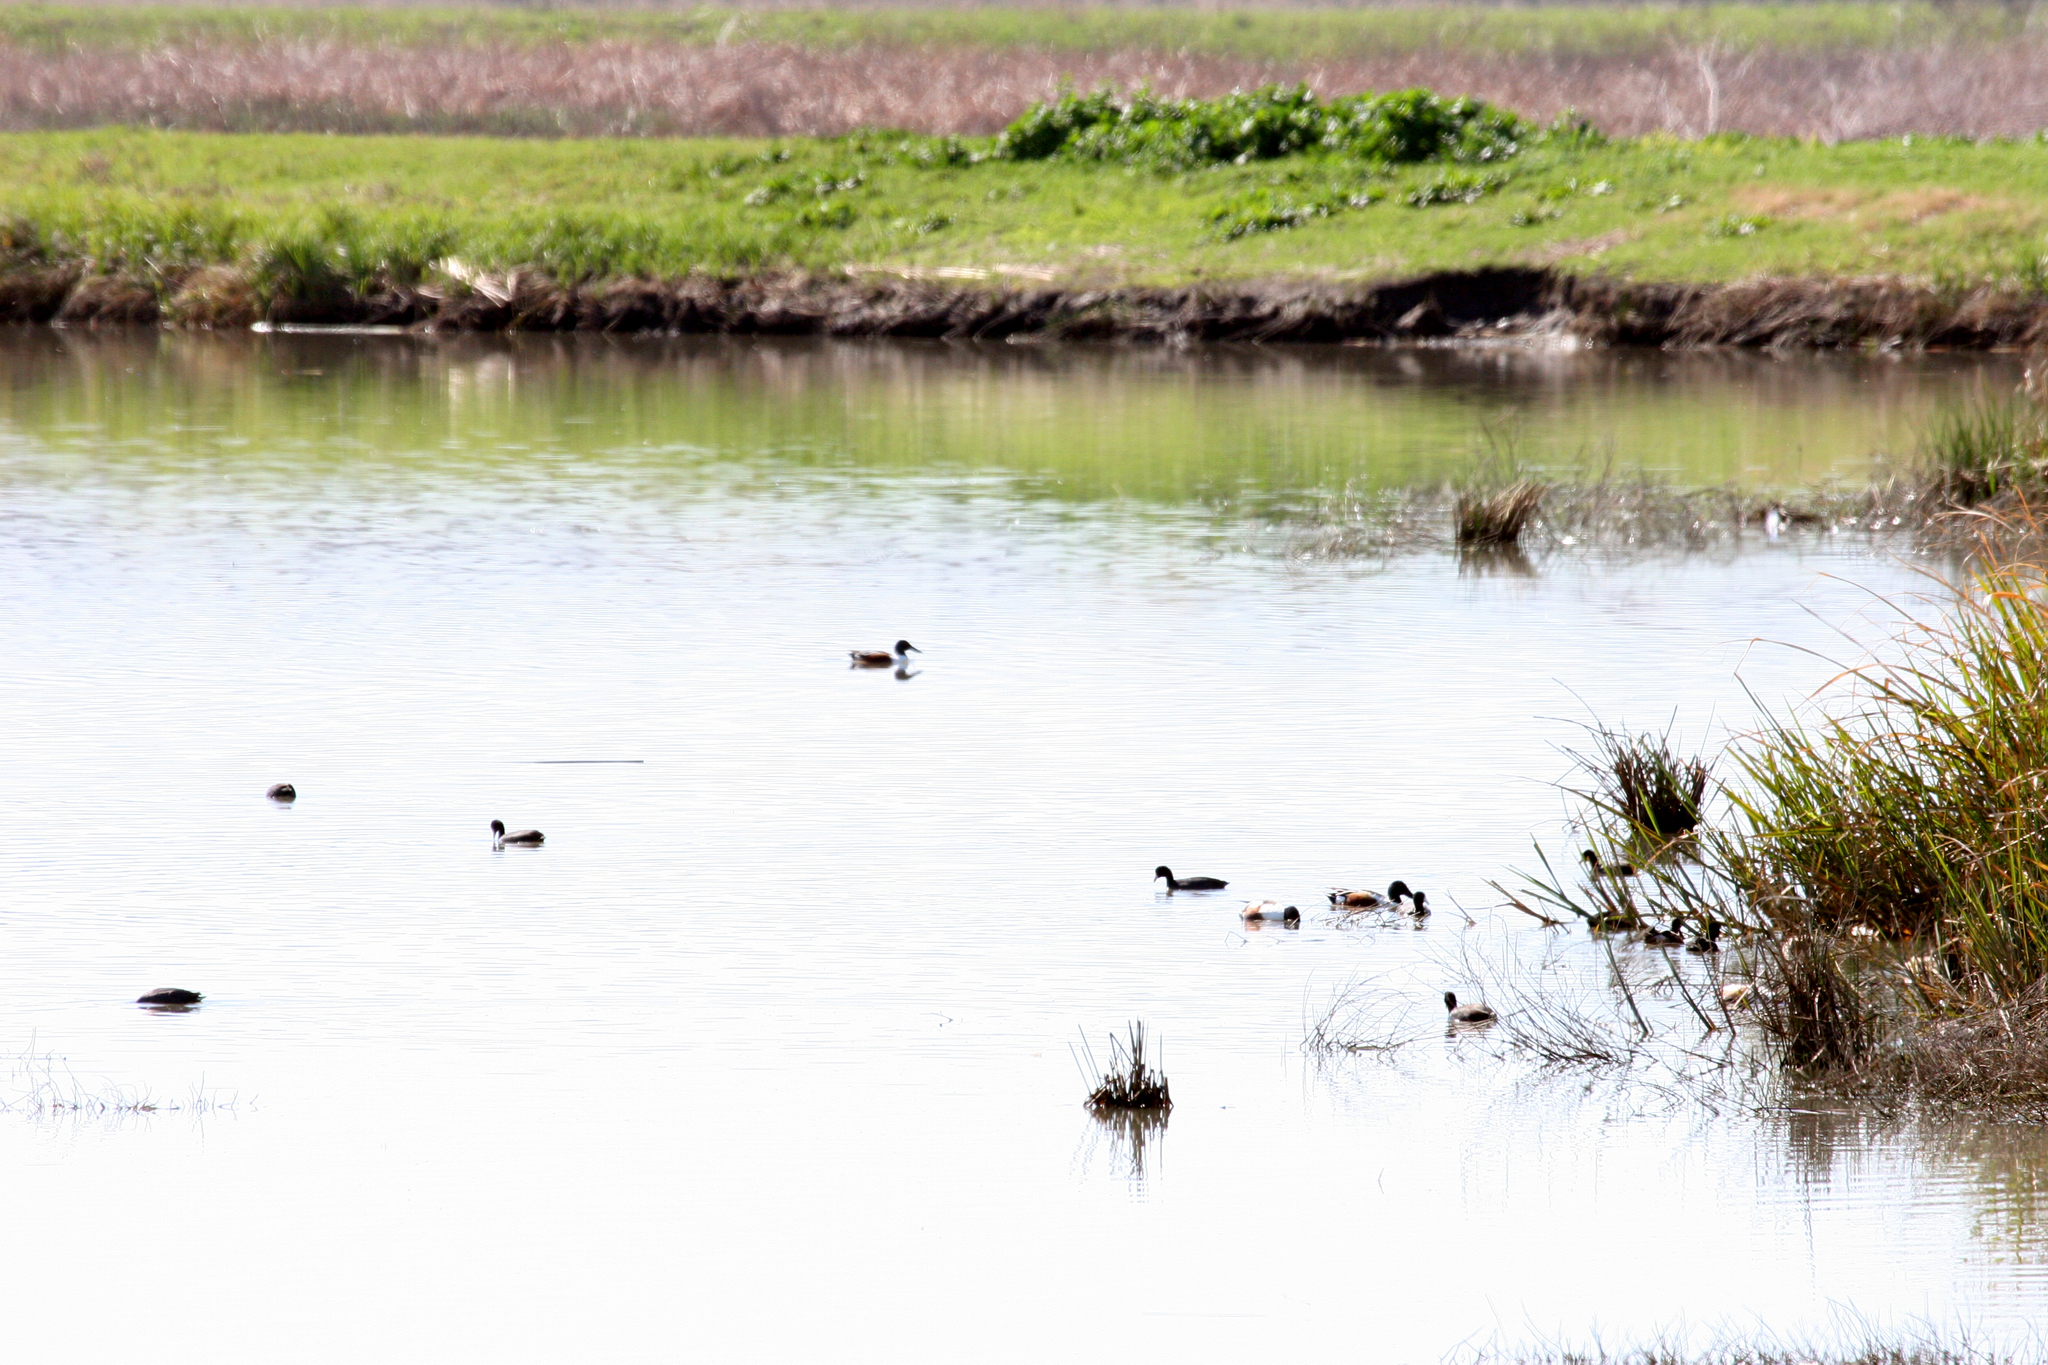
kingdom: Animalia
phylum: Chordata
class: Aves
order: Anseriformes
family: Anatidae
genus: Spatula
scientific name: Spatula clypeata
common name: Northern shoveler
